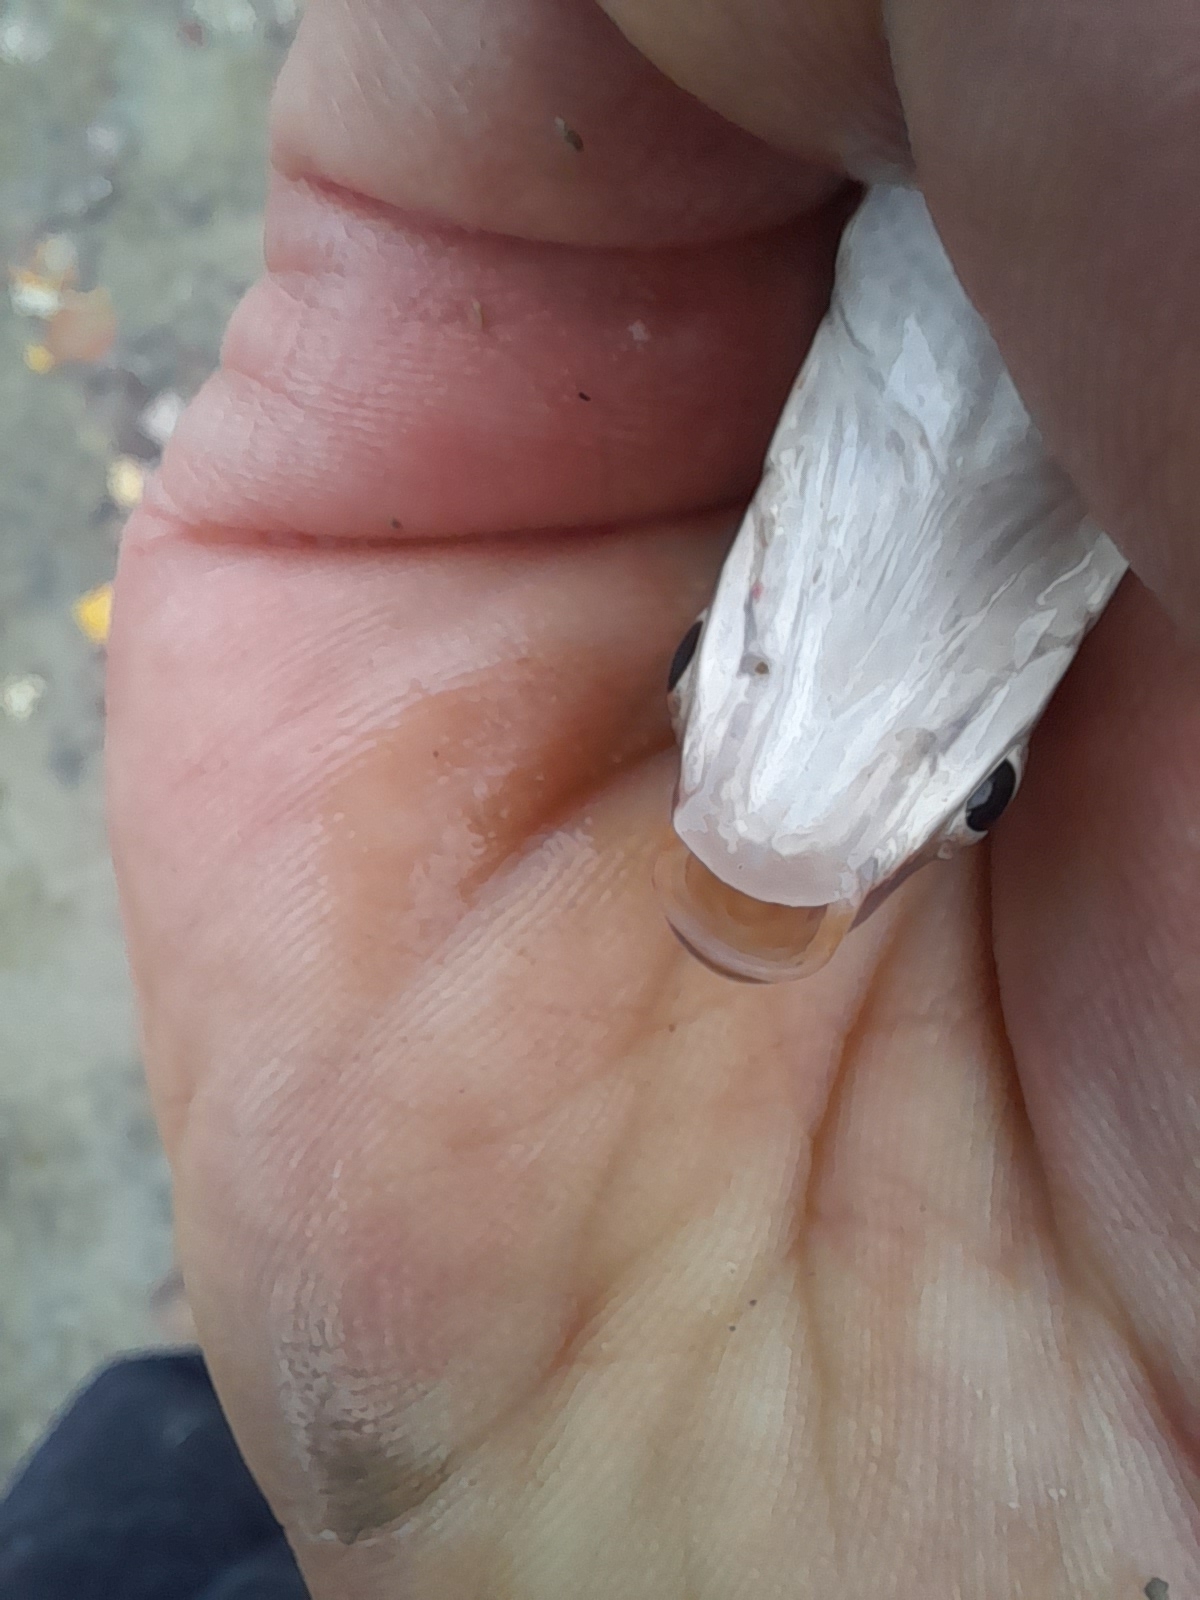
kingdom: Animalia
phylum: Chordata
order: Cypriniformes
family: Cyprinidae
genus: Protochondrostoma
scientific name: Protochondrostoma genei
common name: South european nase
